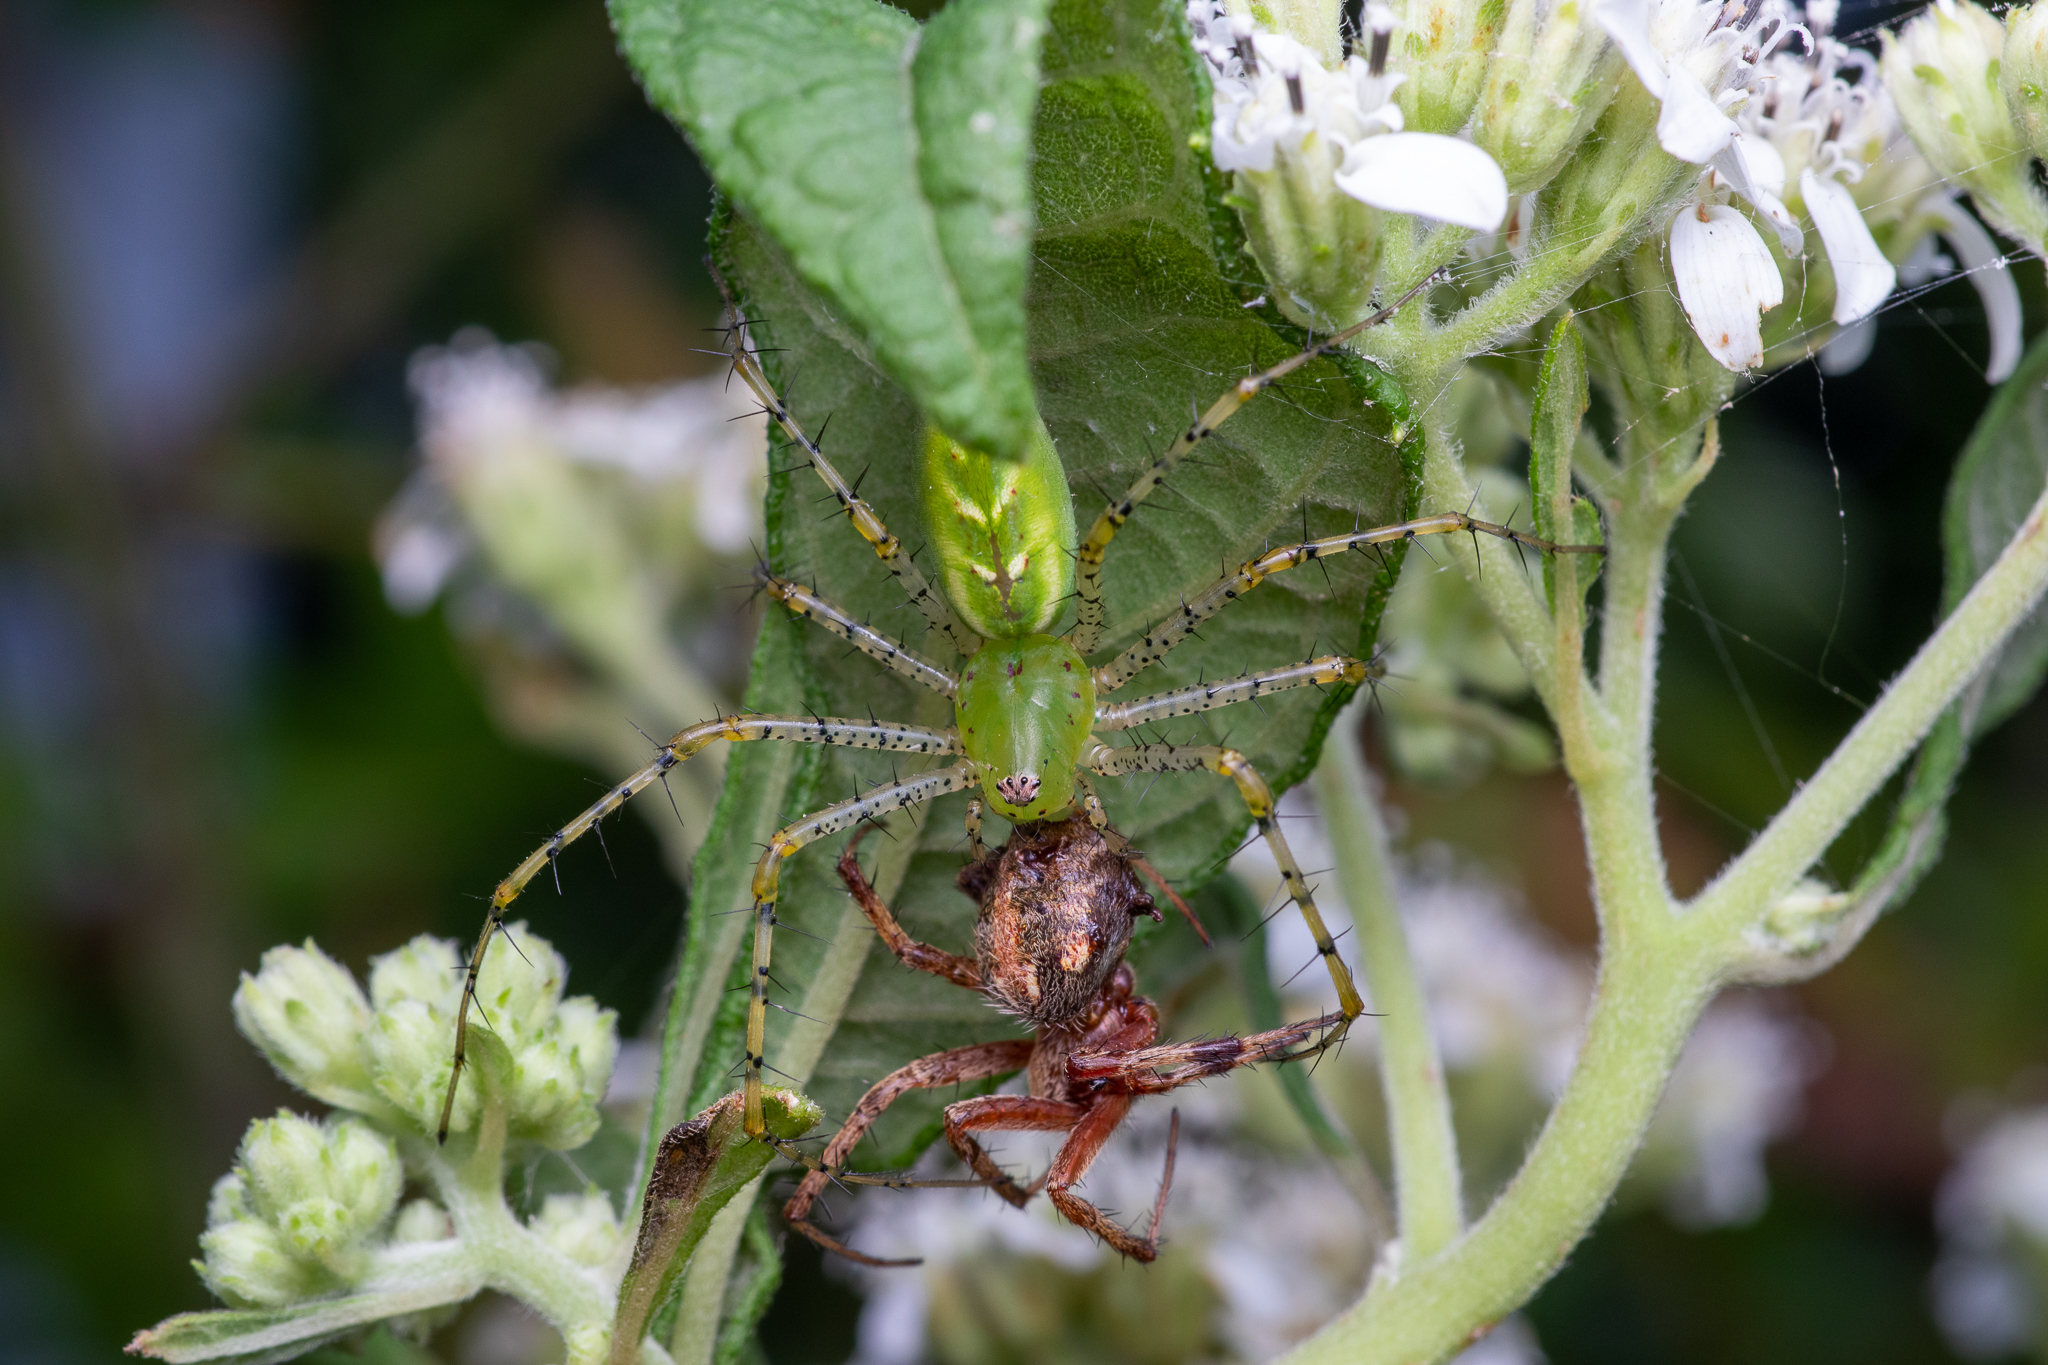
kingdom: Animalia
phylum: Arthropoda
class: Arachnida
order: Araneae
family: Oxyopidae
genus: Peucetia
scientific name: Peucetia viridans
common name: Lynx spiders
